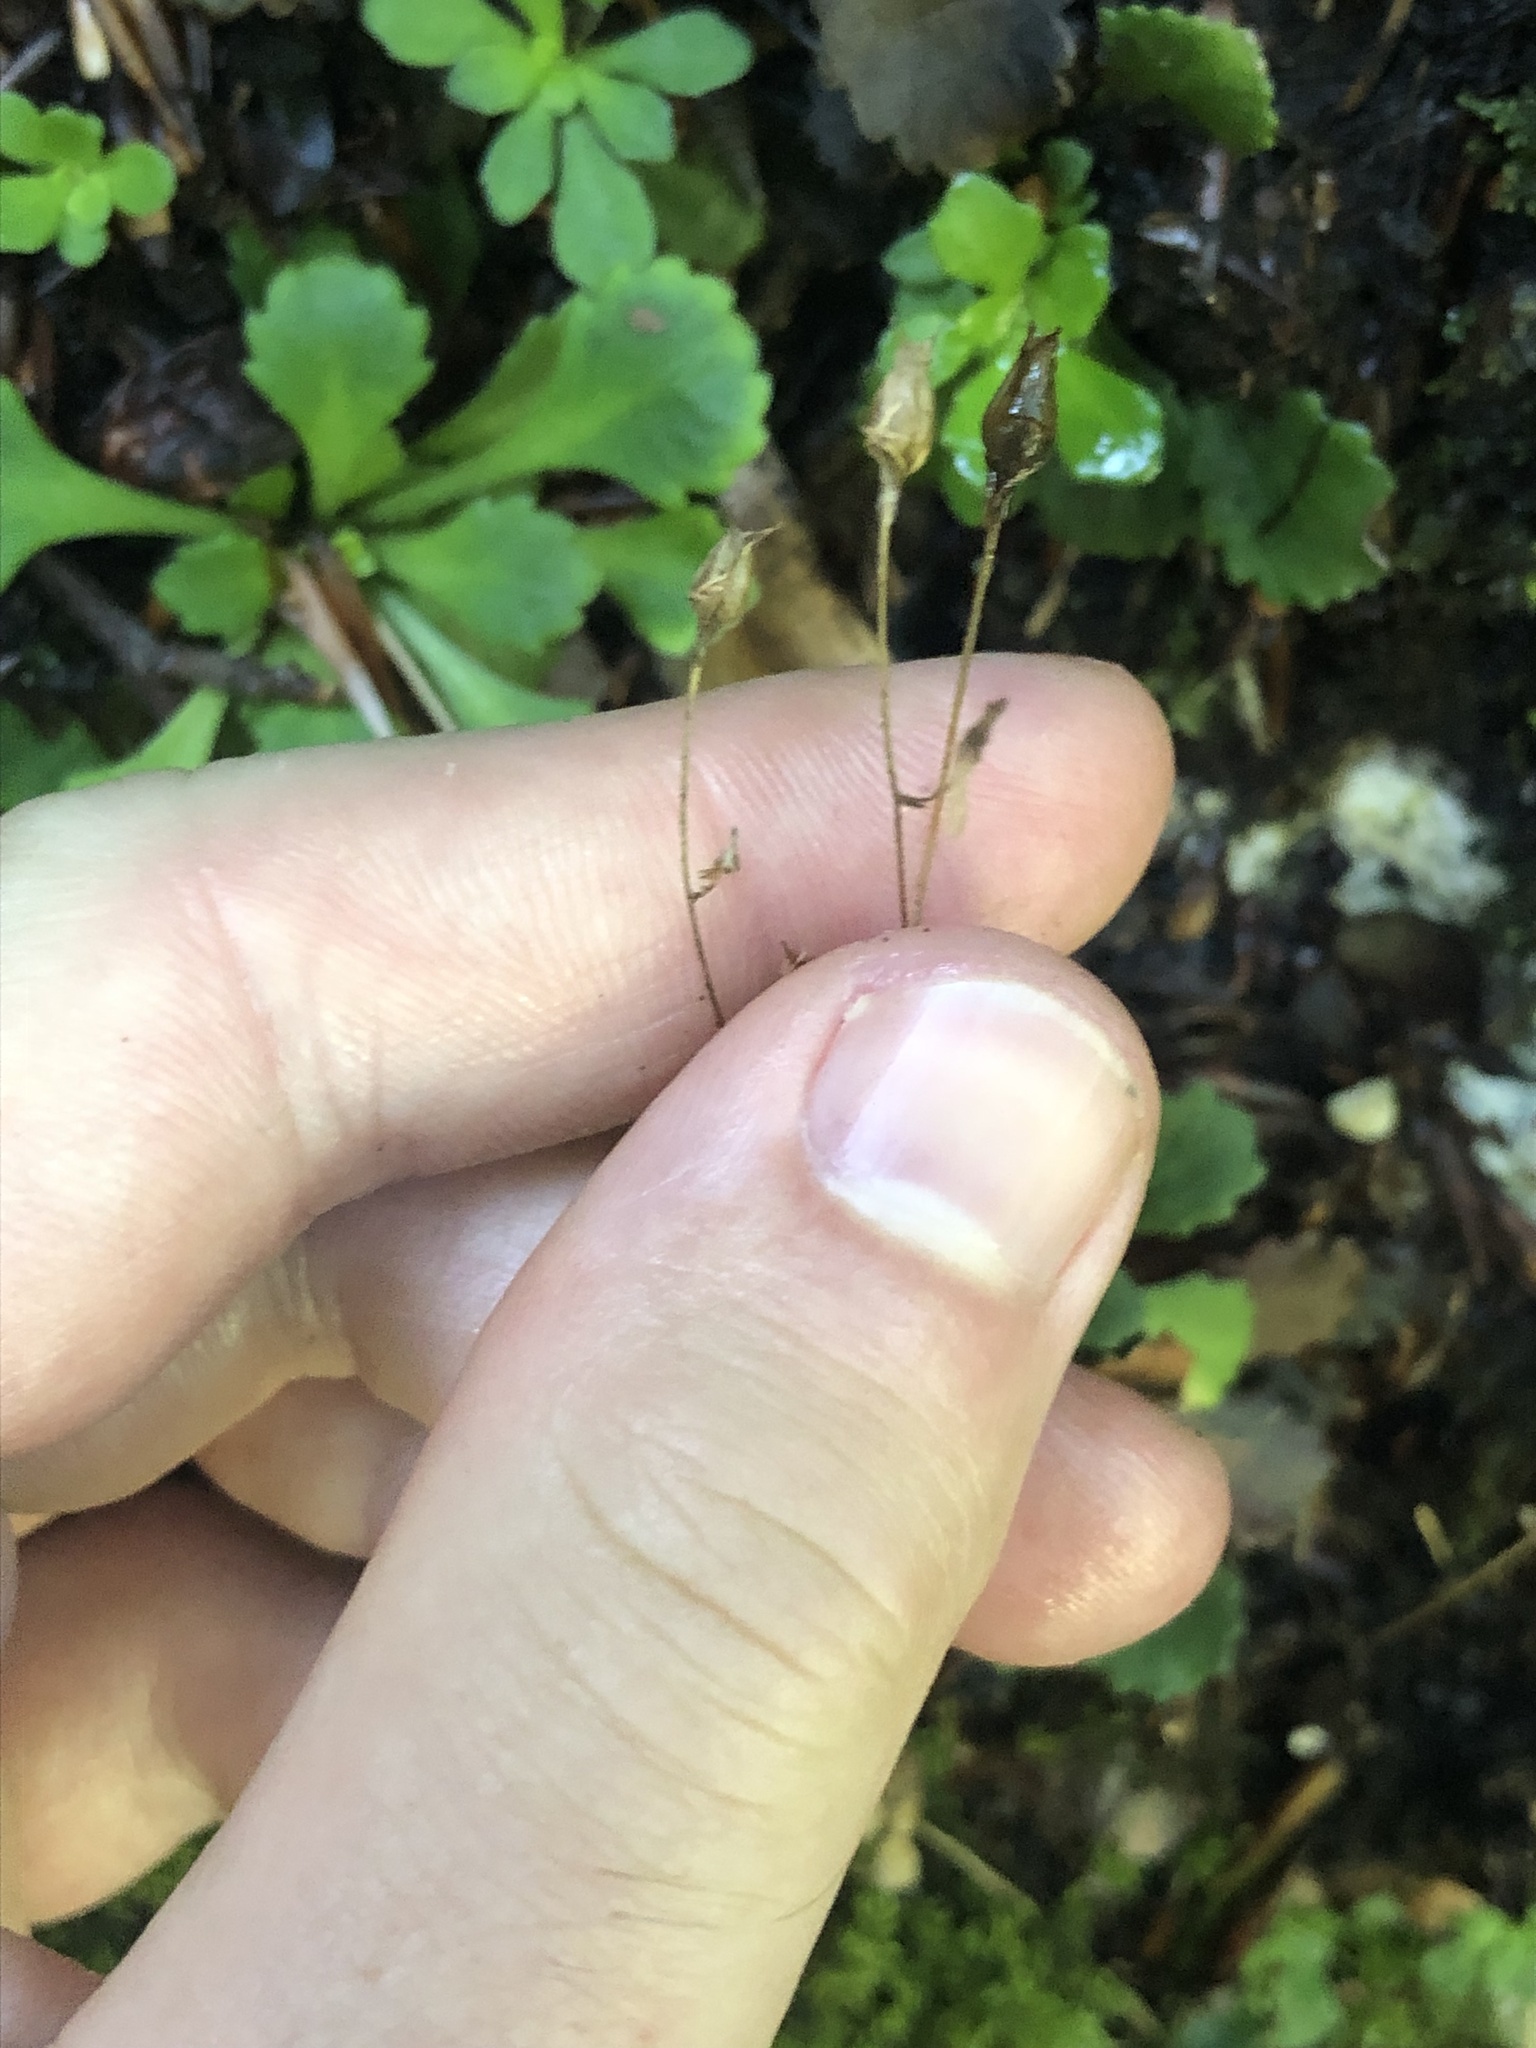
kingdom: Plantae
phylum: Tracheophyta
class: Magnoliopsida
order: Saxifragales
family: Saxifragaceae
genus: Saxifraga
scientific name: Saxifraga cuneifolia
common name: Lesser londonpride
